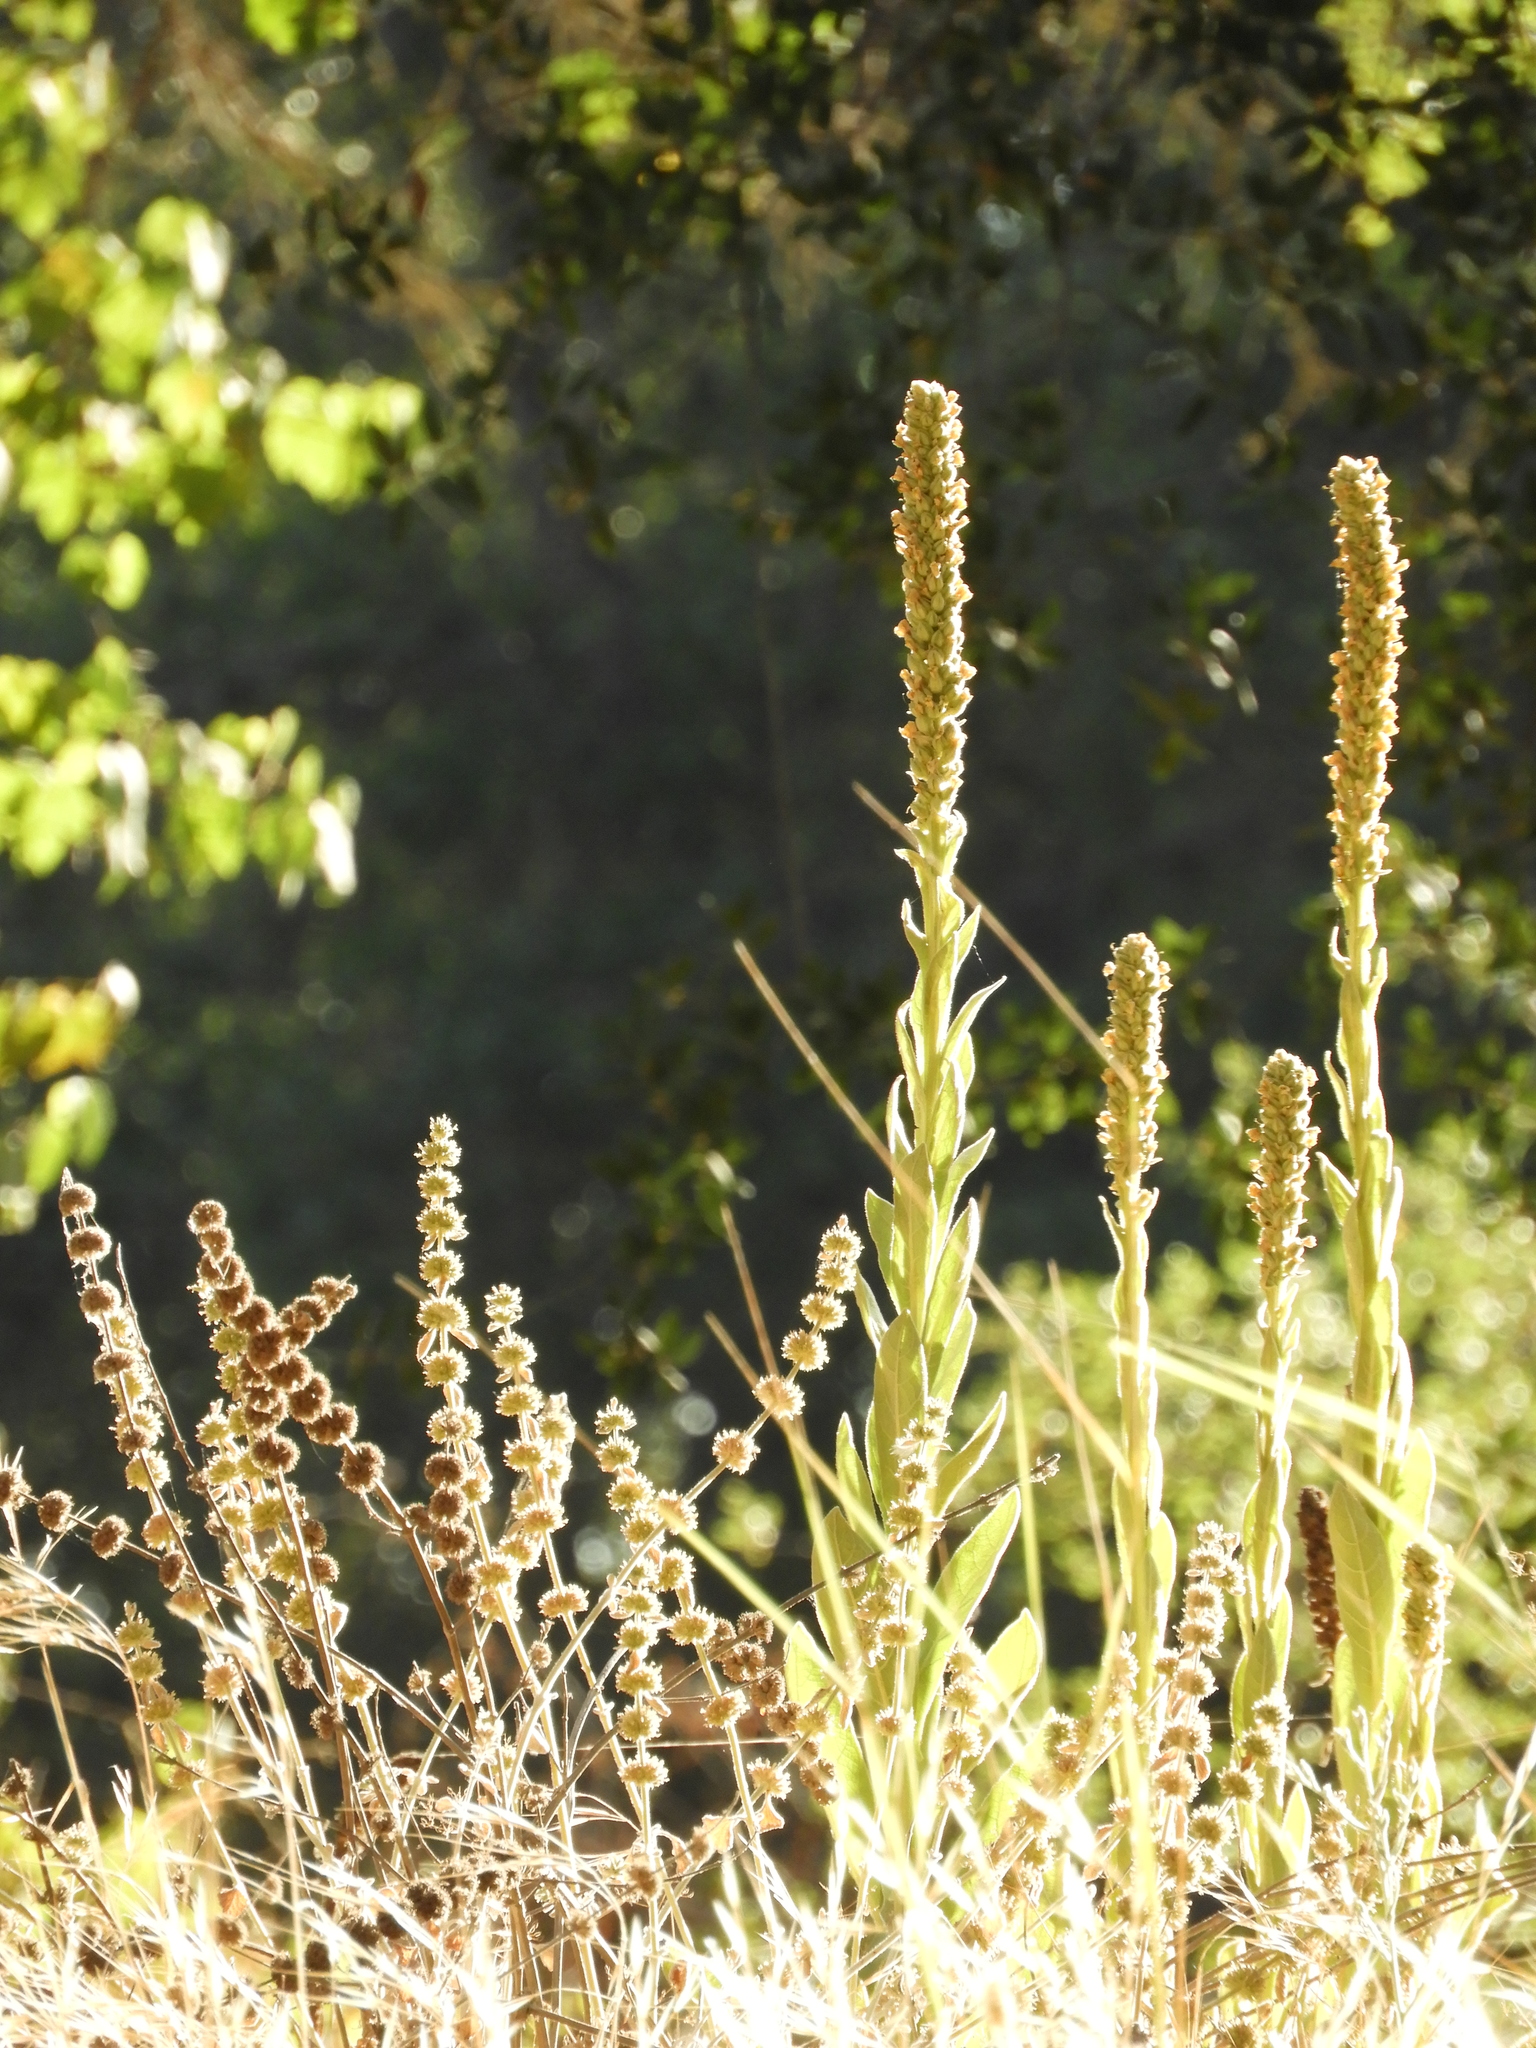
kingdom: Plantae
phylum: Tracheophyta
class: Magnoliopsida
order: Lamiales
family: Scrophulariaceae
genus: Verbascum
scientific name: Verbascum thapsus
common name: Common mullein
